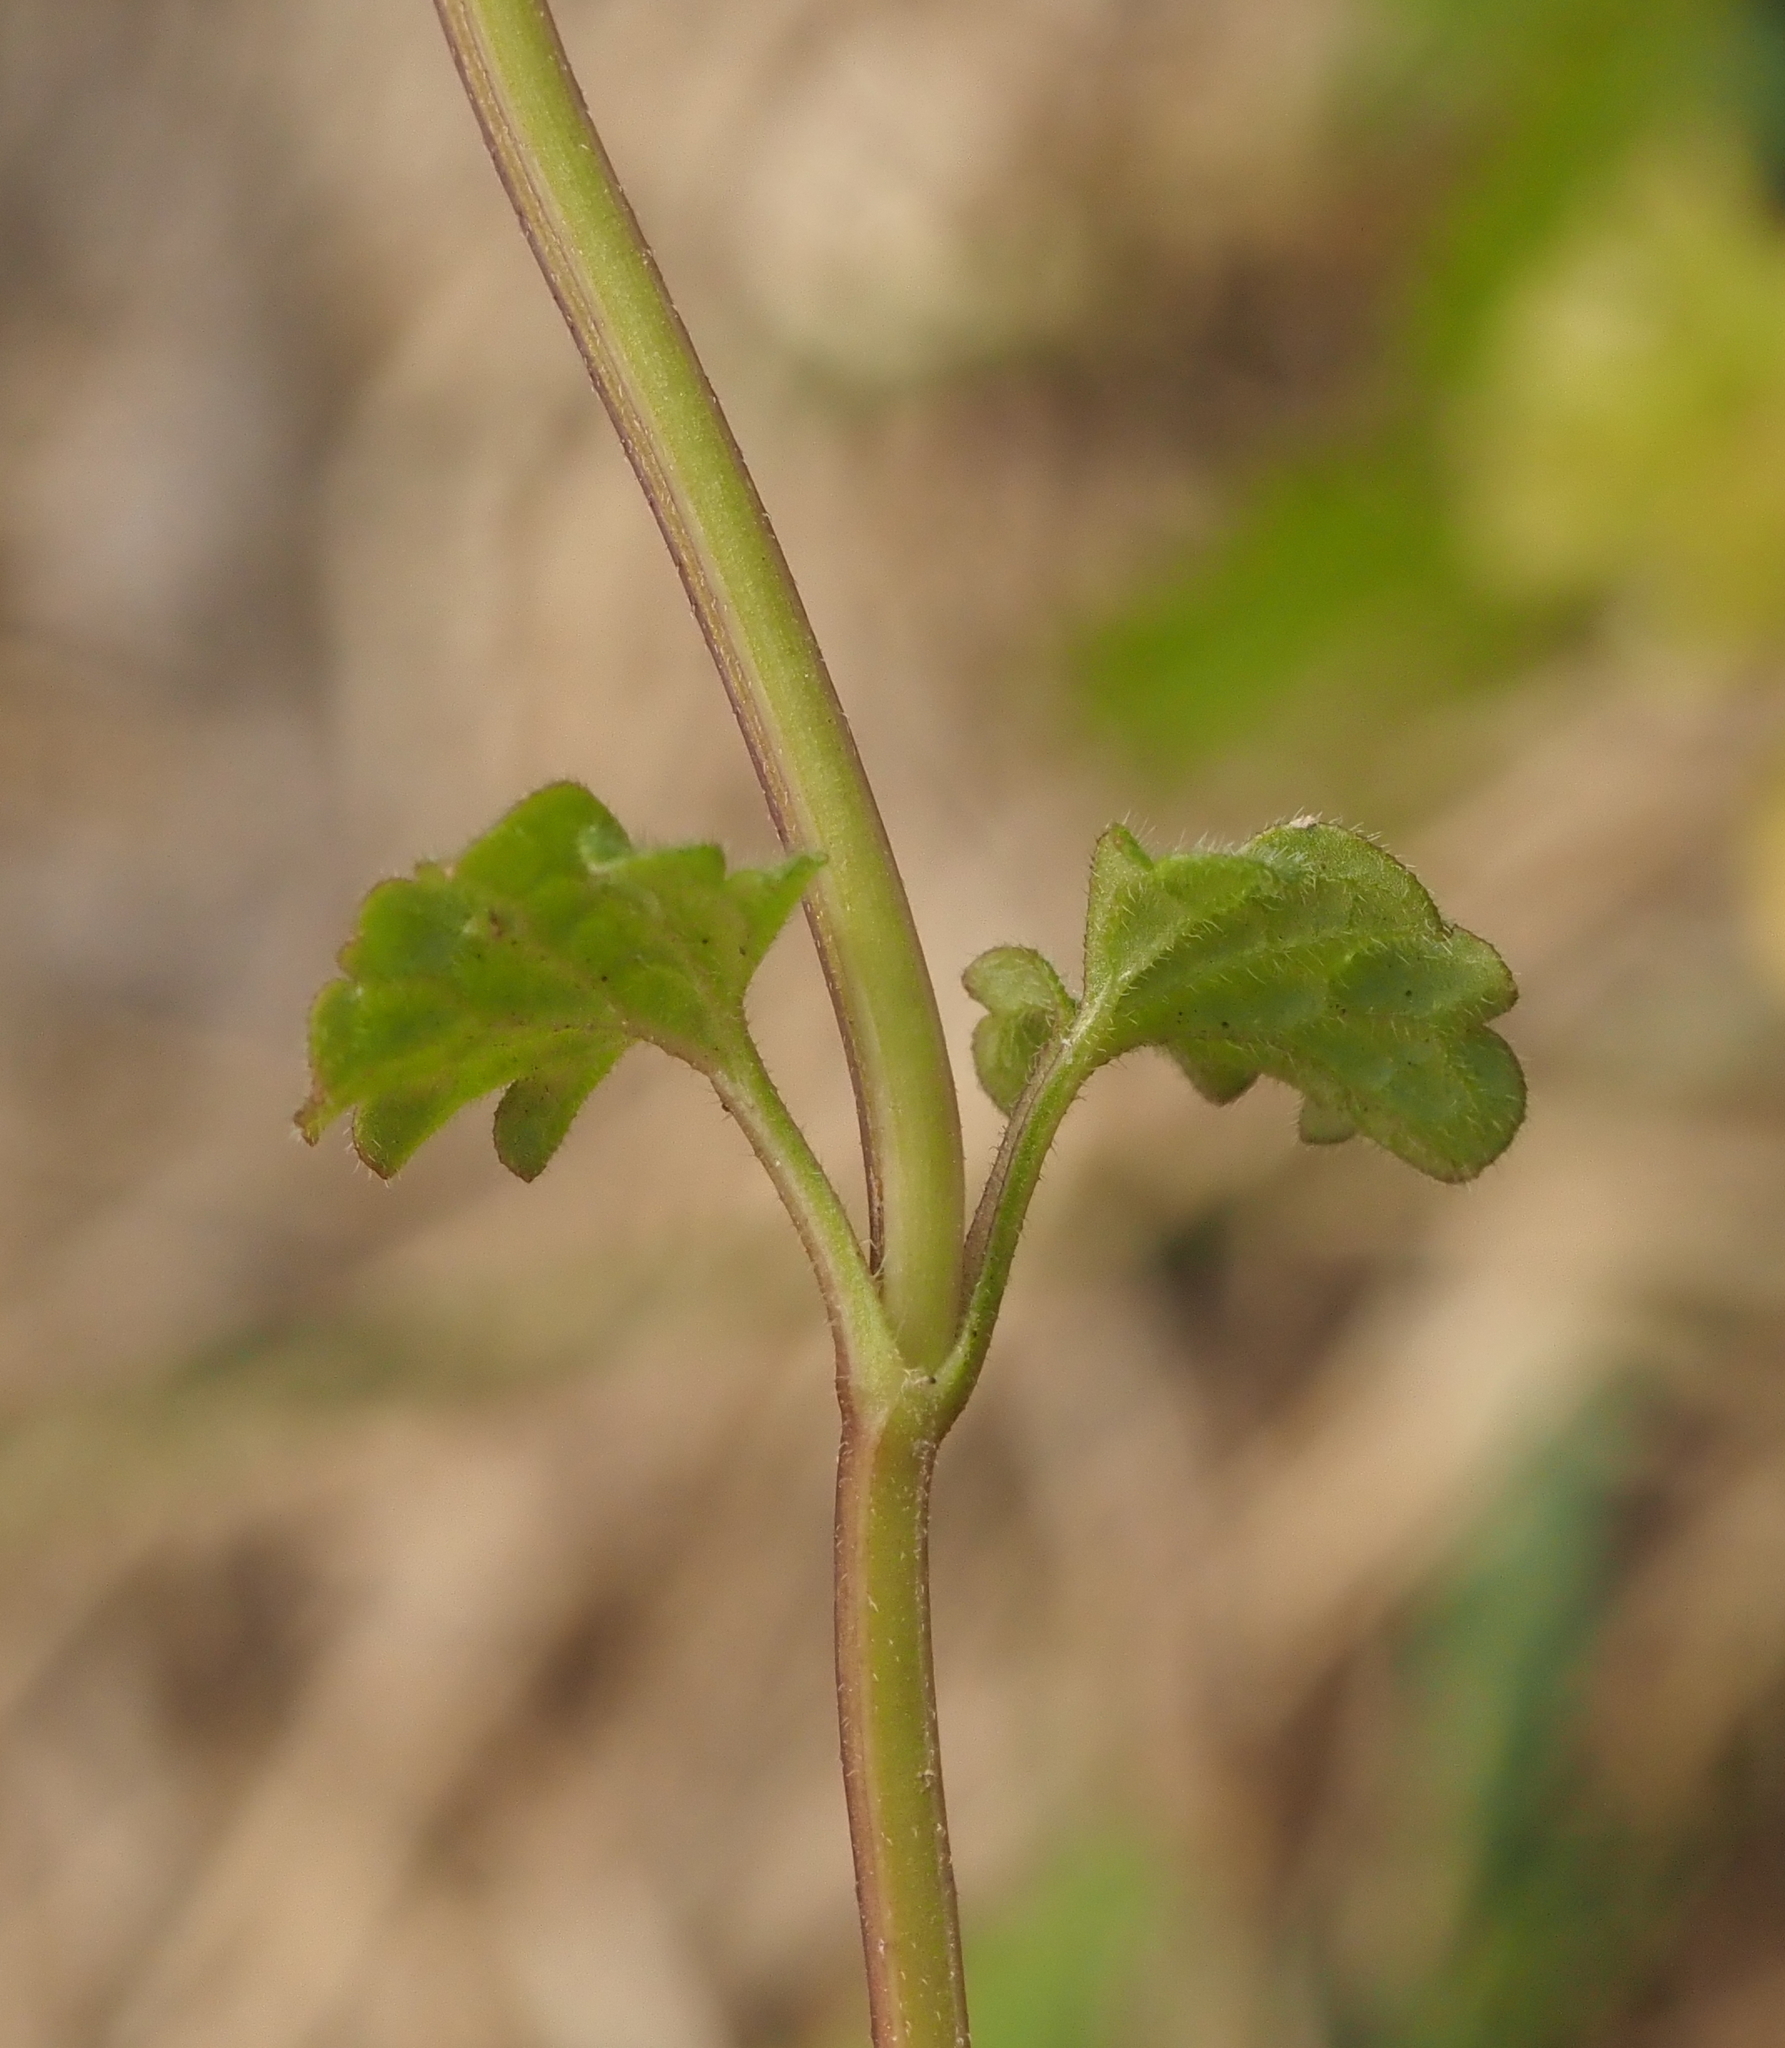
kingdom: Plantae
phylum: Tracheophyta
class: Magnoliopsida
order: Lamiales
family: Lamiaceae
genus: Lamium
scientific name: Lamium amplexicaule
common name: Henbit dead-nettle
